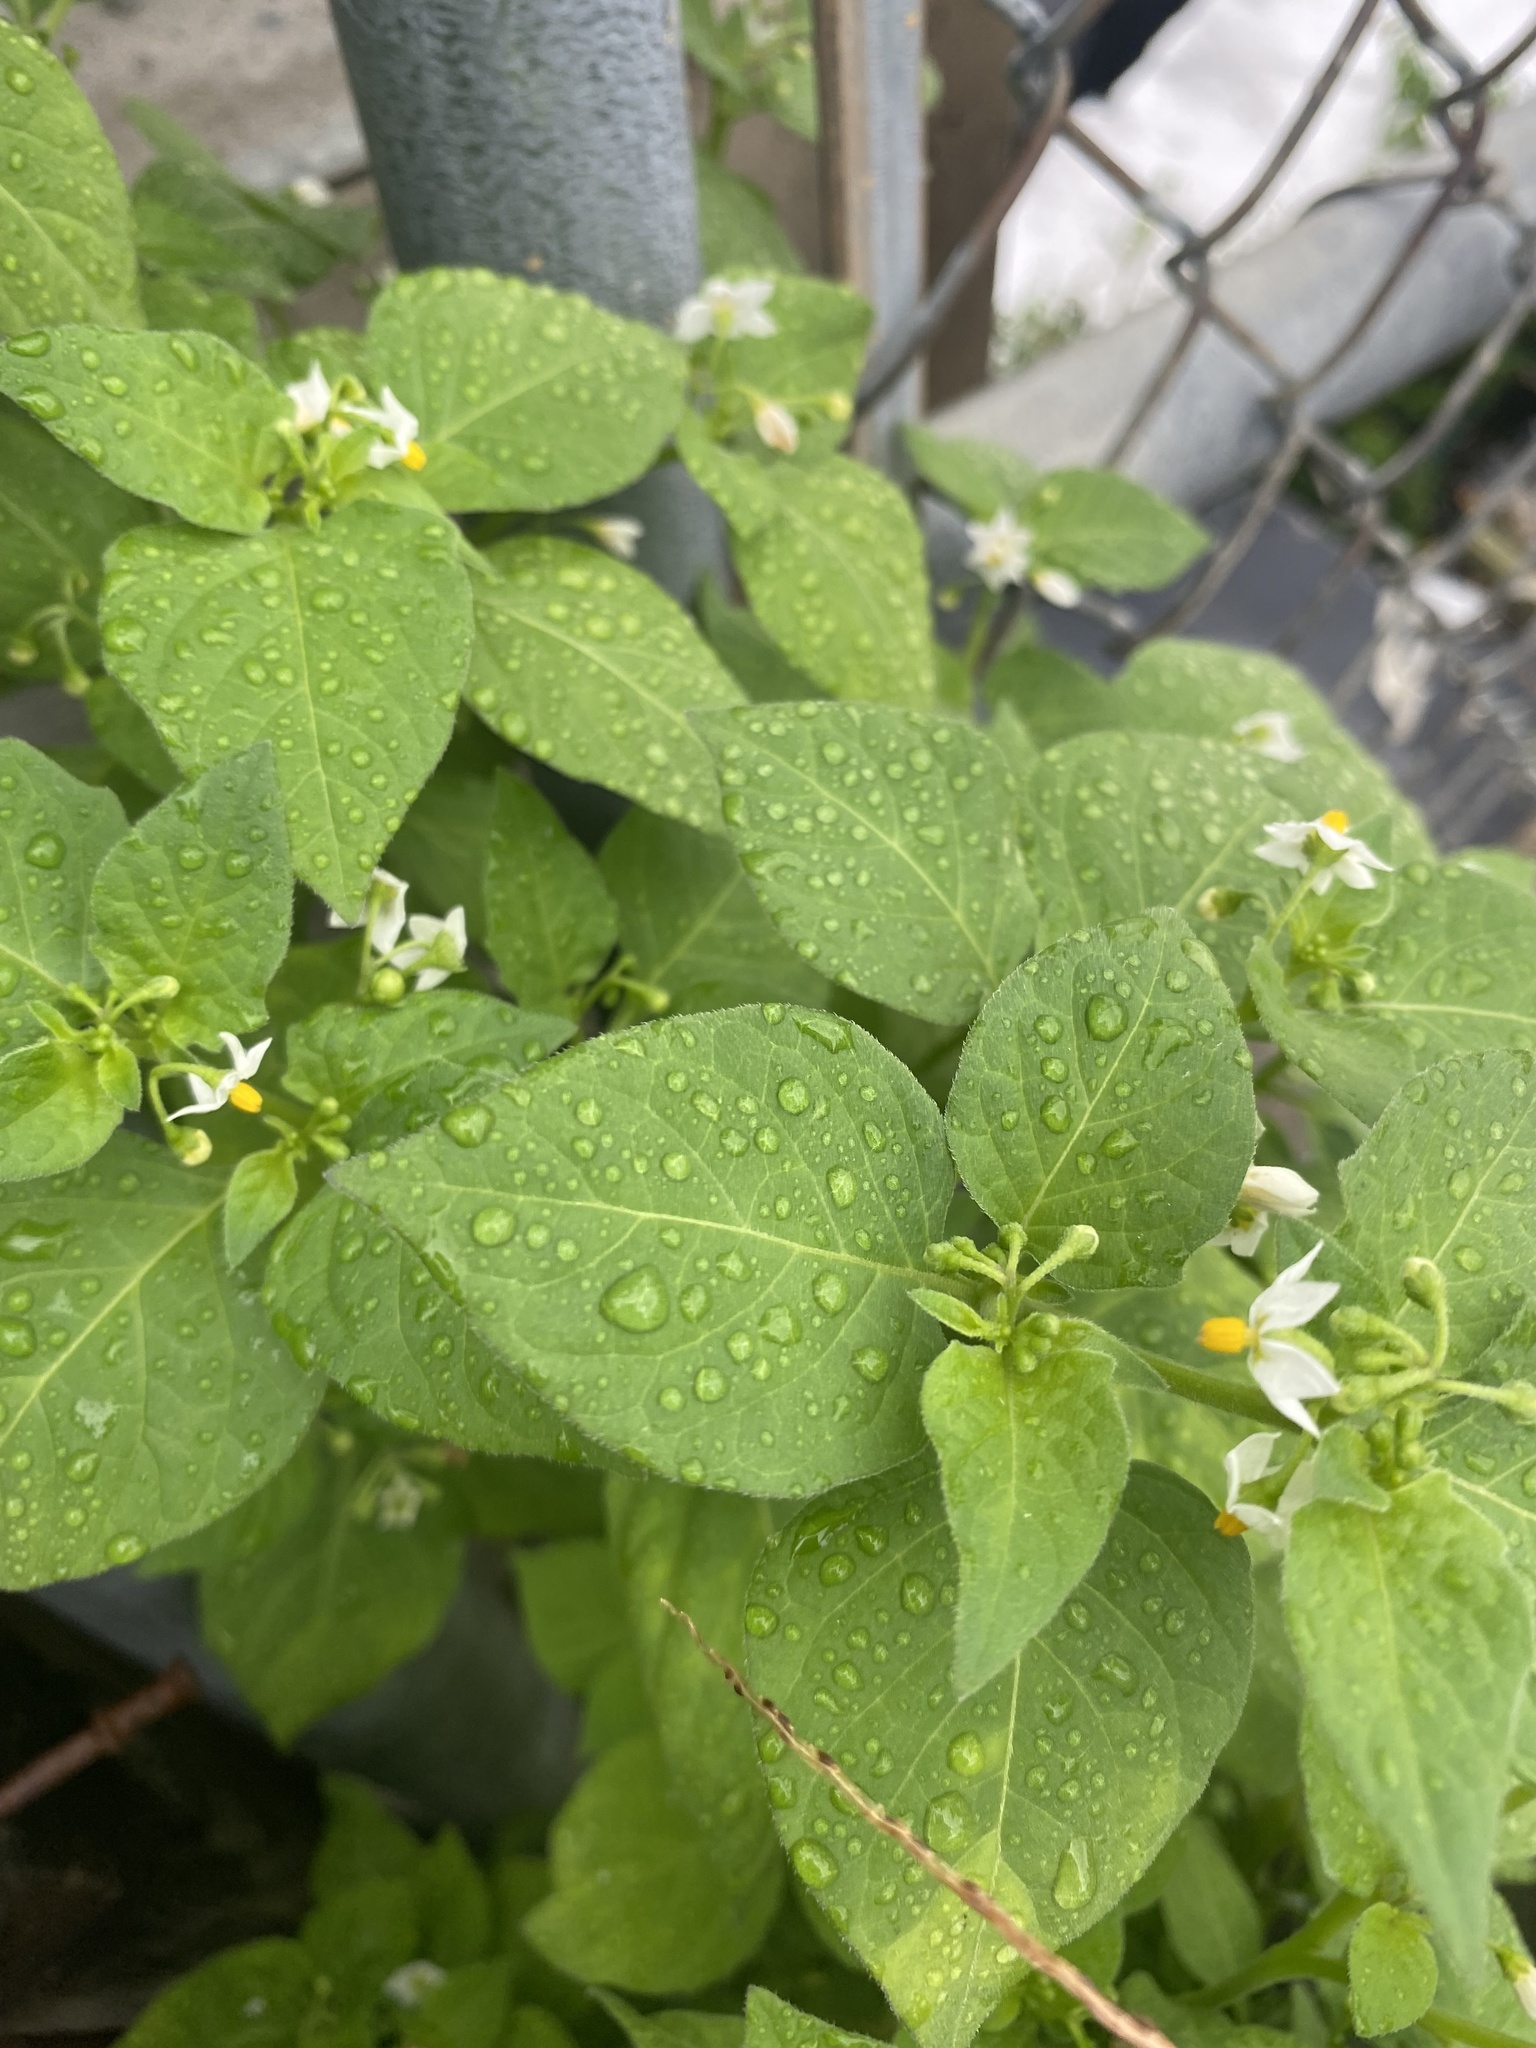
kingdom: Plantae
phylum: Tracheophyta
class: Magnoliopsida
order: Solanales
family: Solanaceae
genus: Solanum
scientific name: Solanum emulans
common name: Eastern black nightshade
